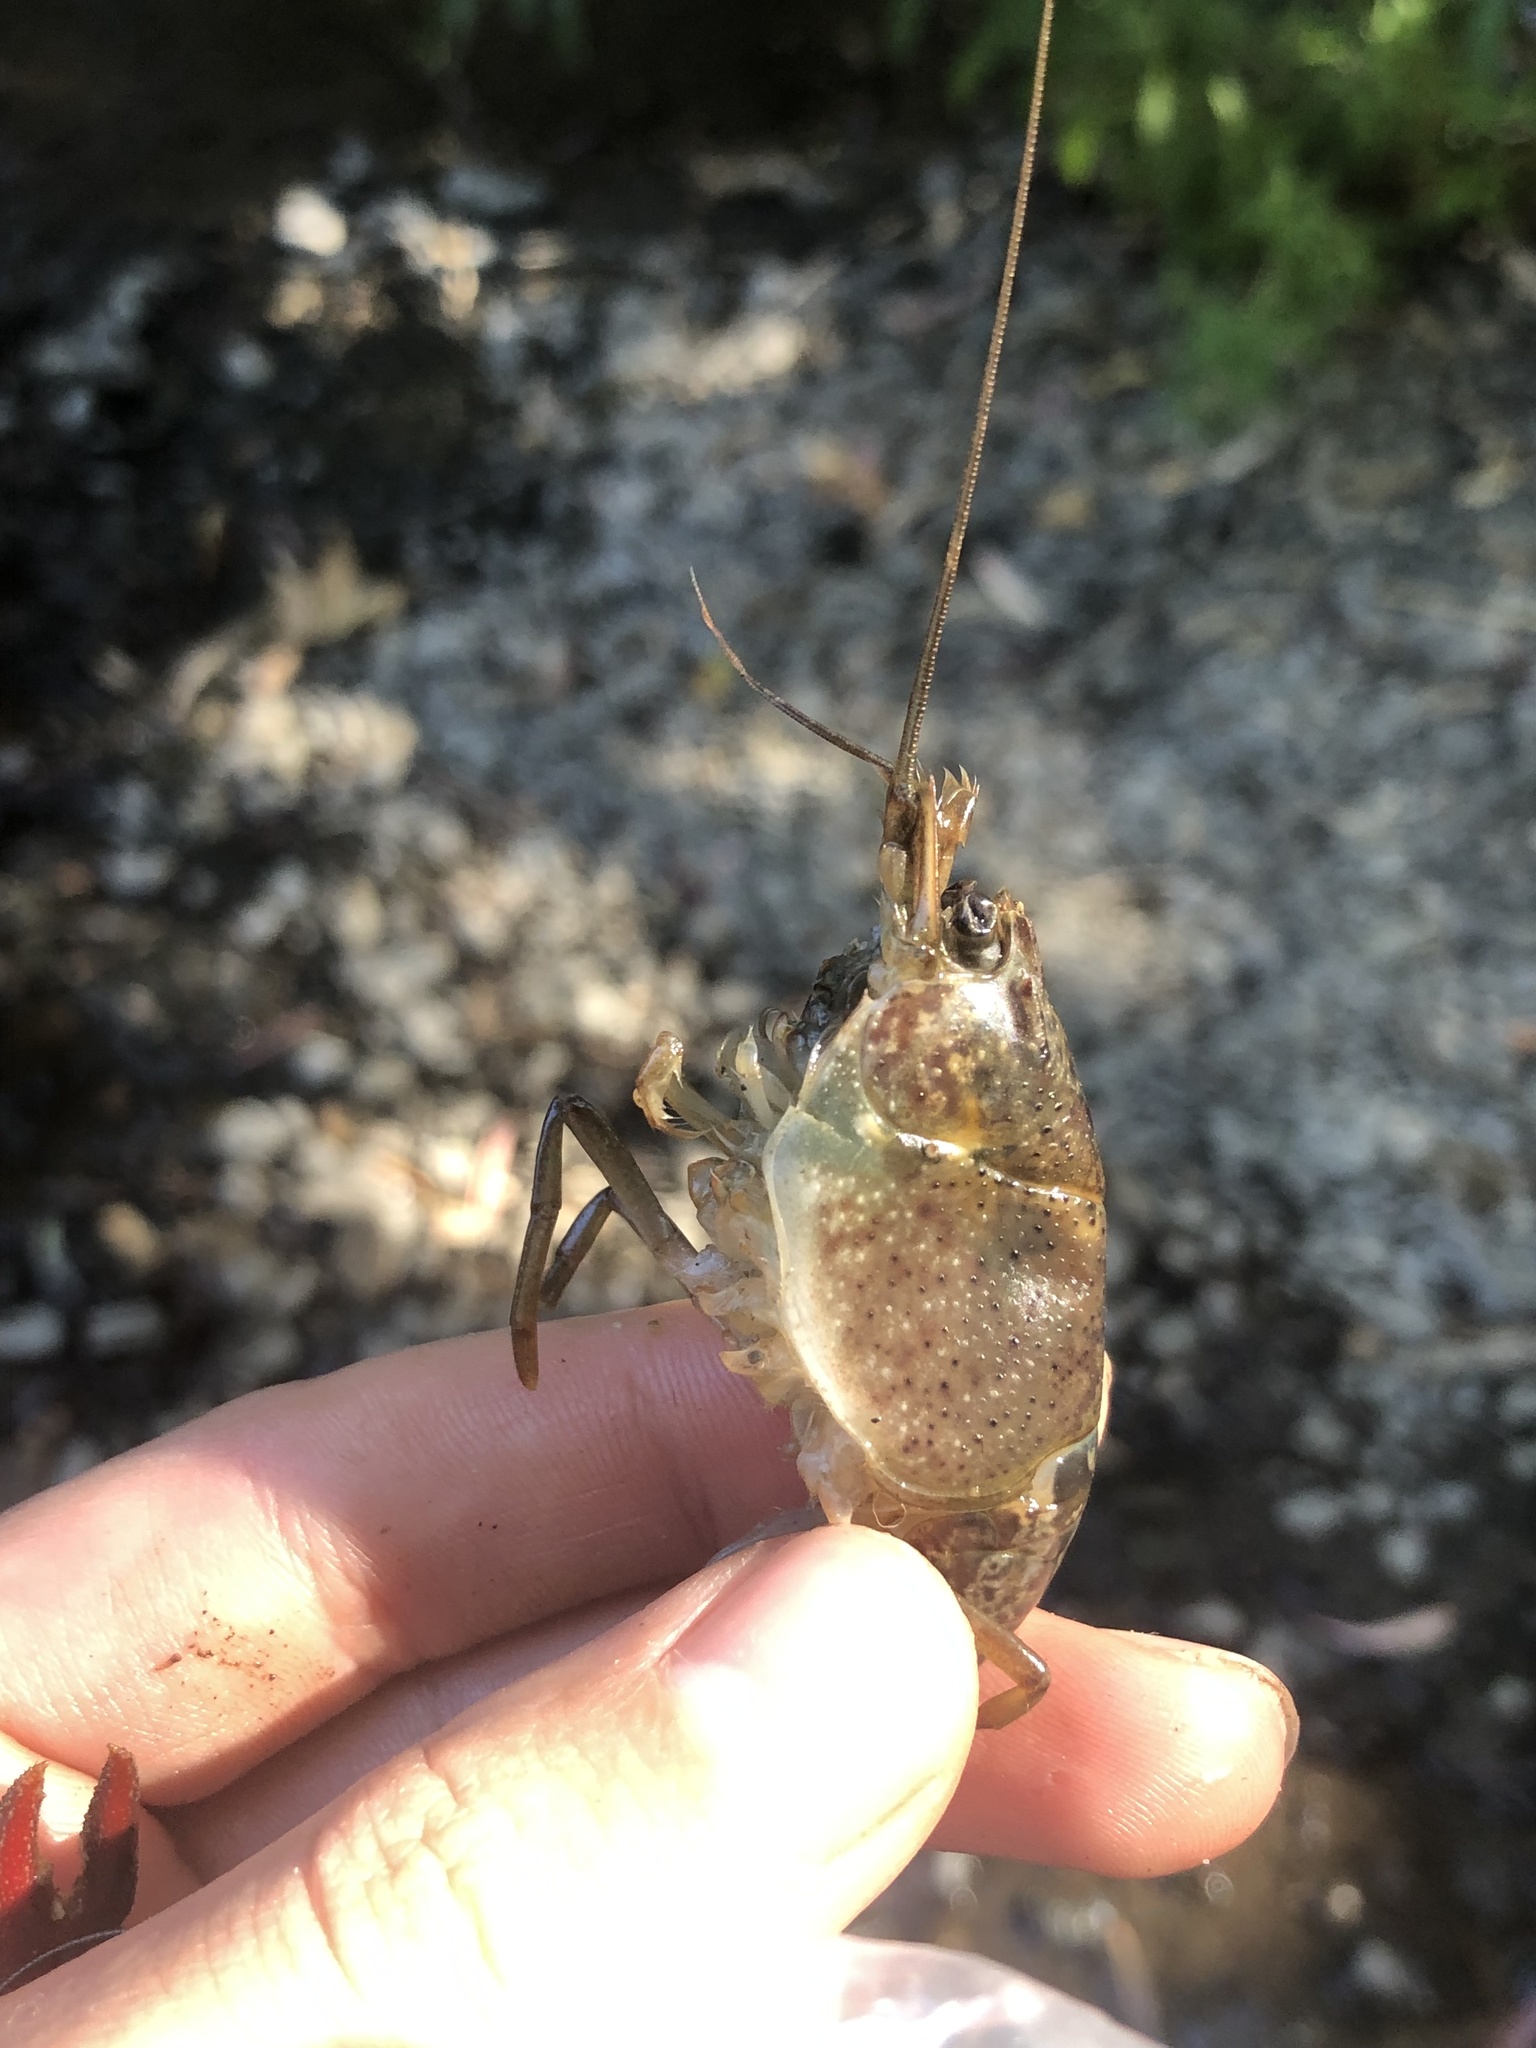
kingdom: Animalia
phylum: Arthropoda
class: Malacostraca
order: Decapoda
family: Cambaridae
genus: Procambarus
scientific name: Procambarus clarkii
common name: Red swamp crayfish
